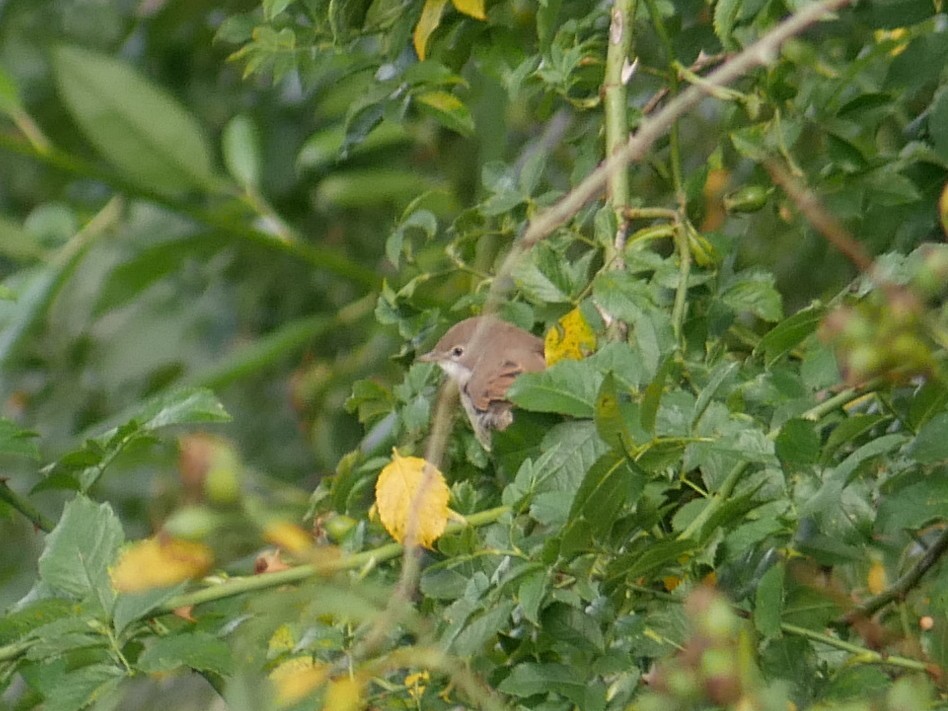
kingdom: Animalia
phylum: Chordata
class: Aves
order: Passeriformes
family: Sylviidae
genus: Sylvia
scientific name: Sylvia communis
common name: Common whitethroat
